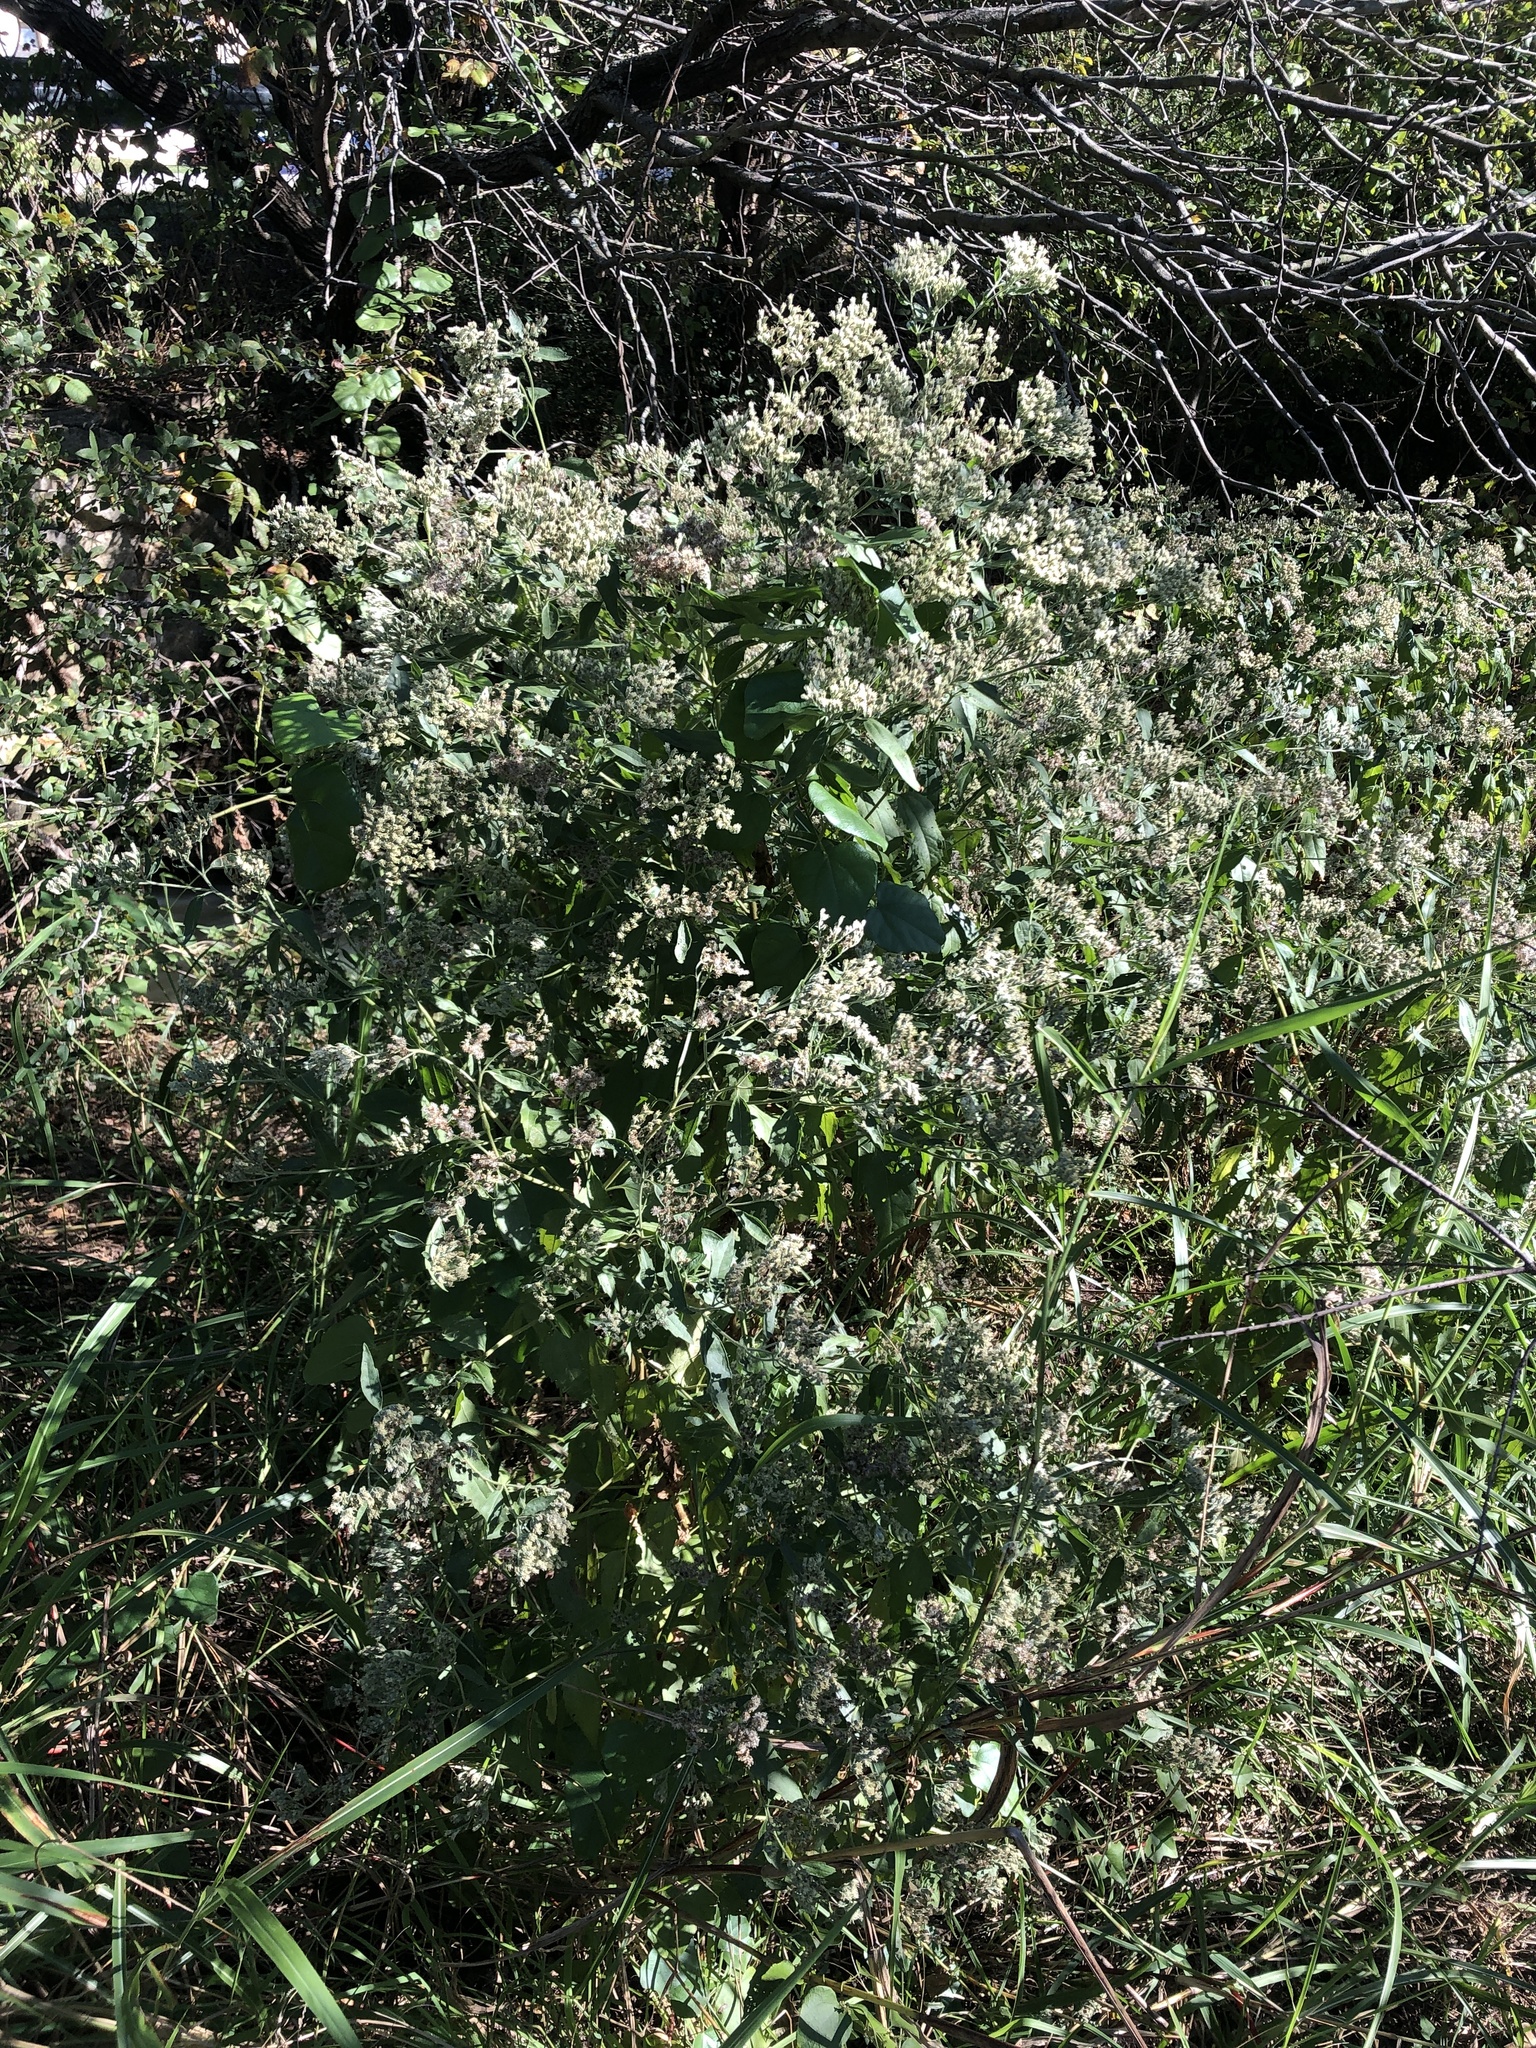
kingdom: Plantae
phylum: Tracheophyta
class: Magnoliopsida
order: Asterales
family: Asteraceae
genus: Eupatorium
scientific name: Eupatorium serotinum
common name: Late boneset
